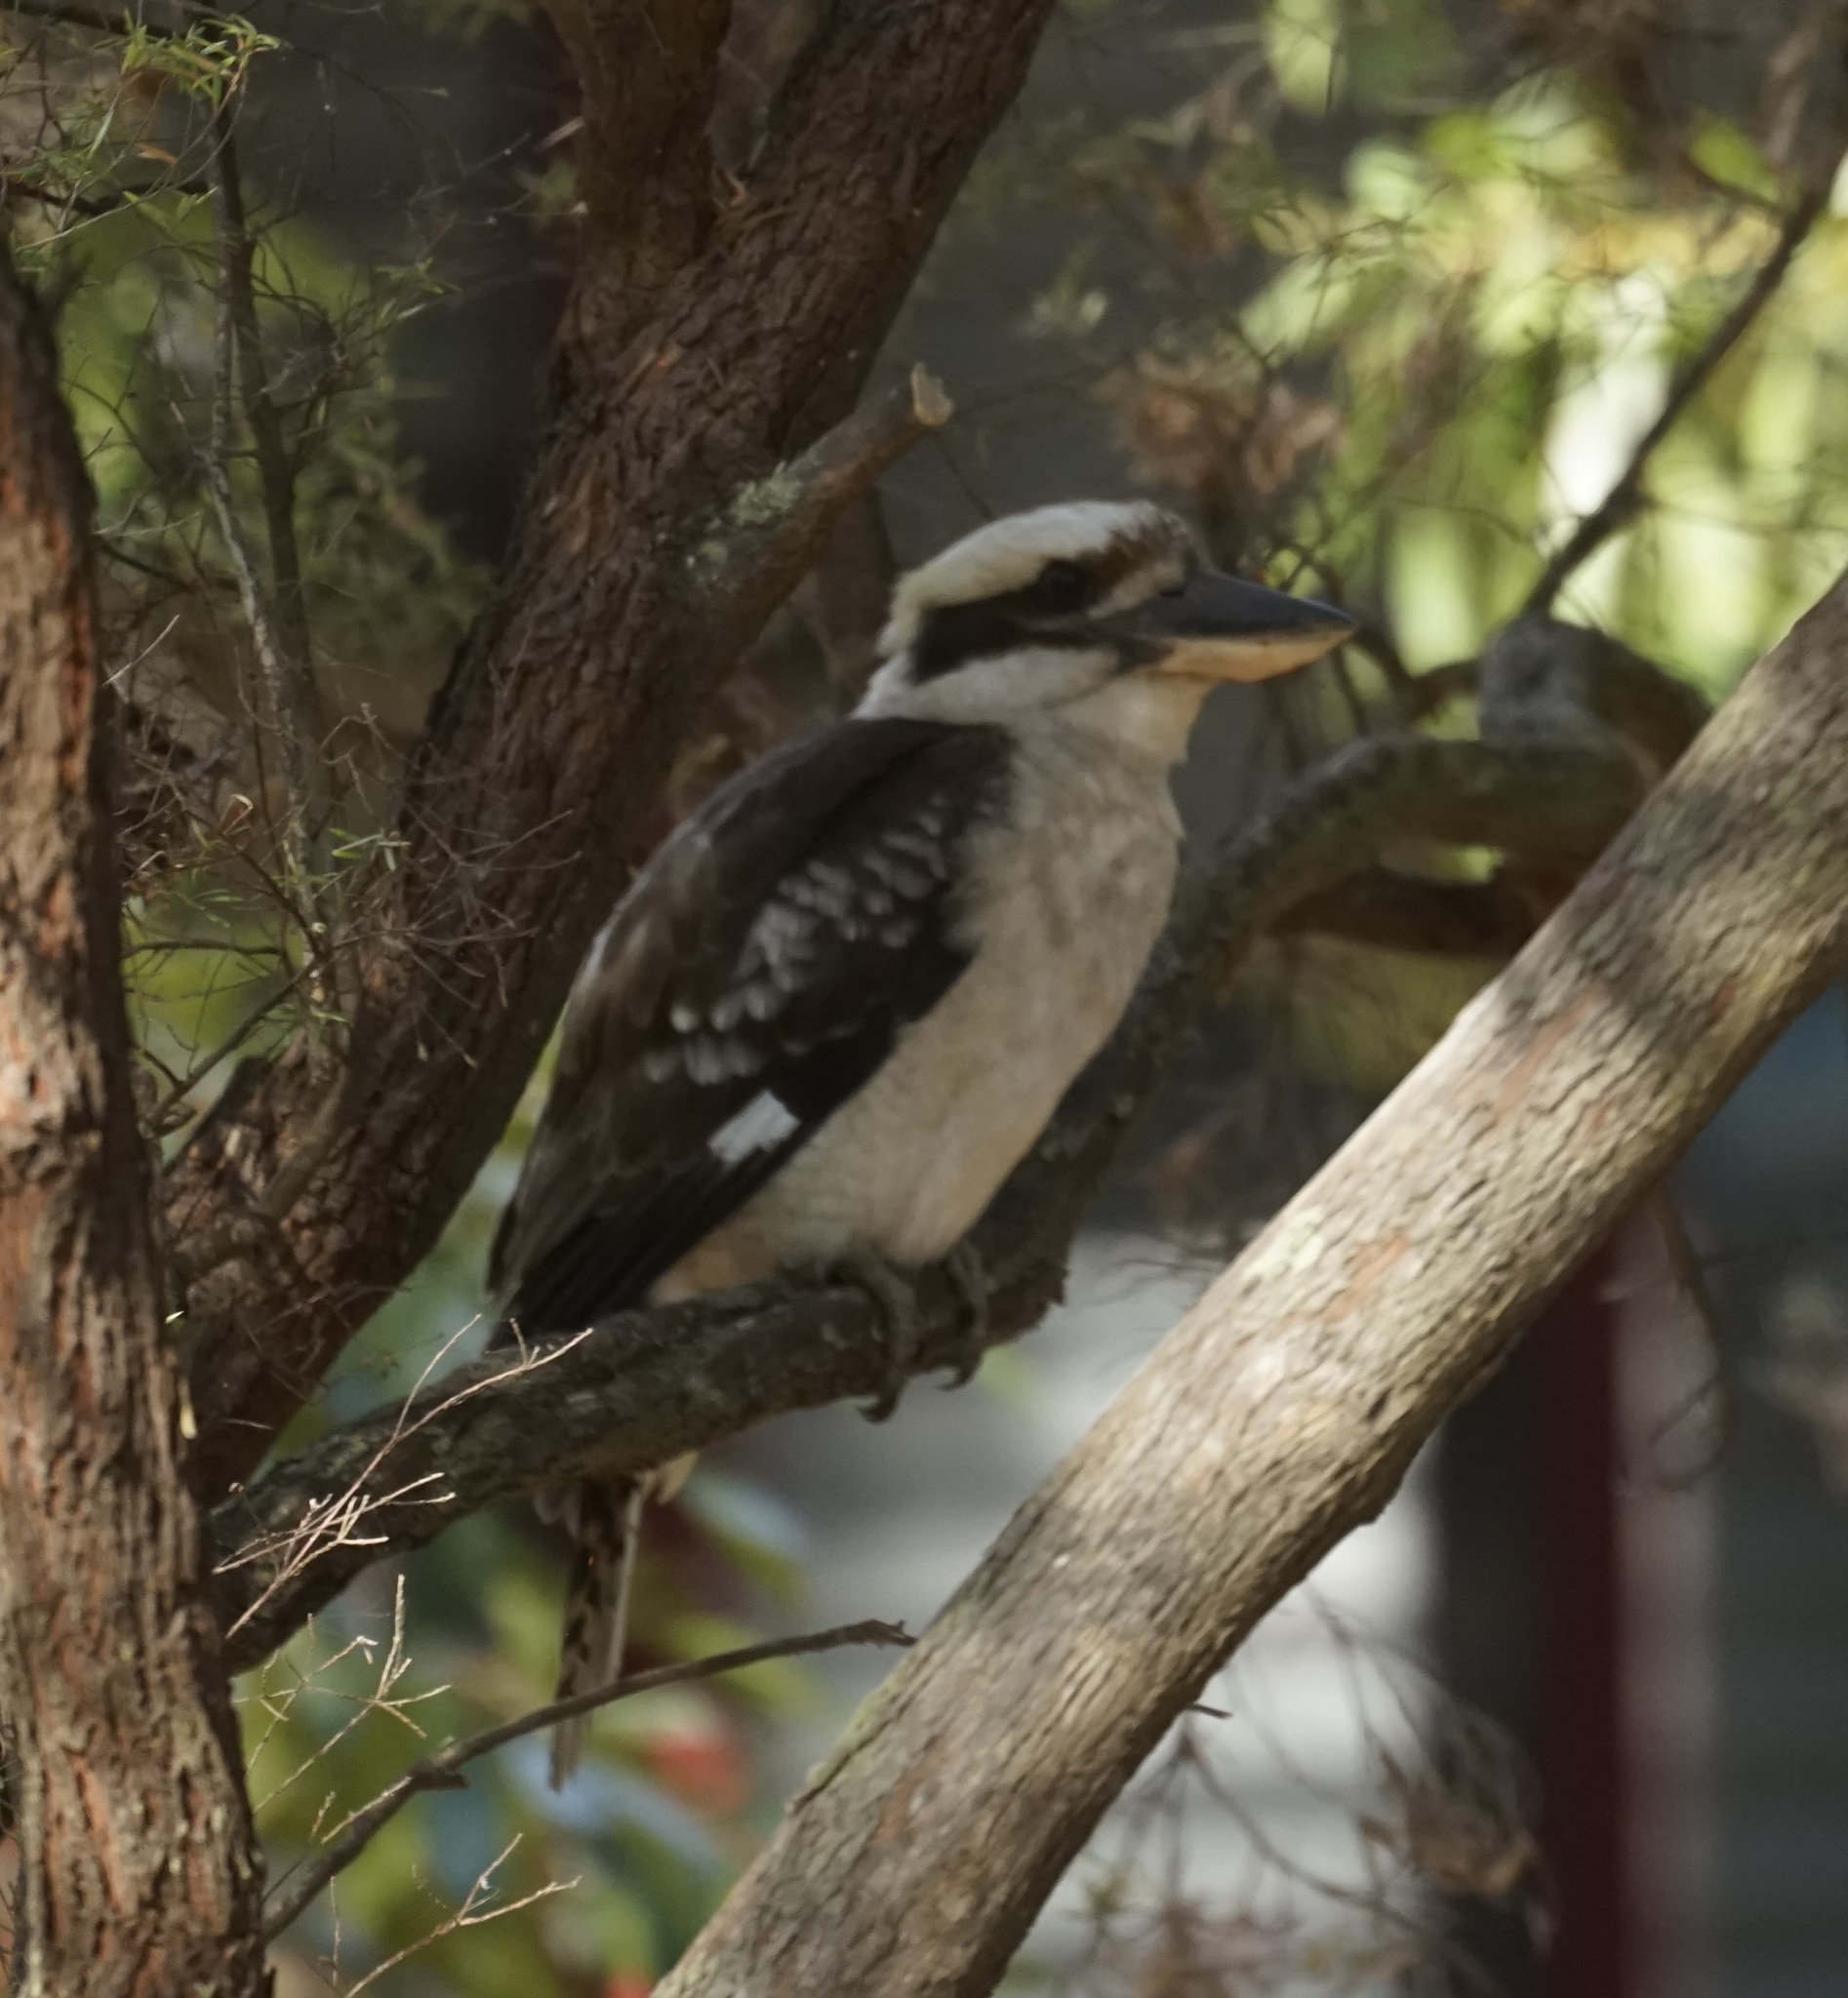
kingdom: Animalia
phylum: Chordata
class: Aves
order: Coraciiformes
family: Alcedinidae
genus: Dacelo
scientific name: Dacelo novaeguineae
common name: Laughing kookaburra
